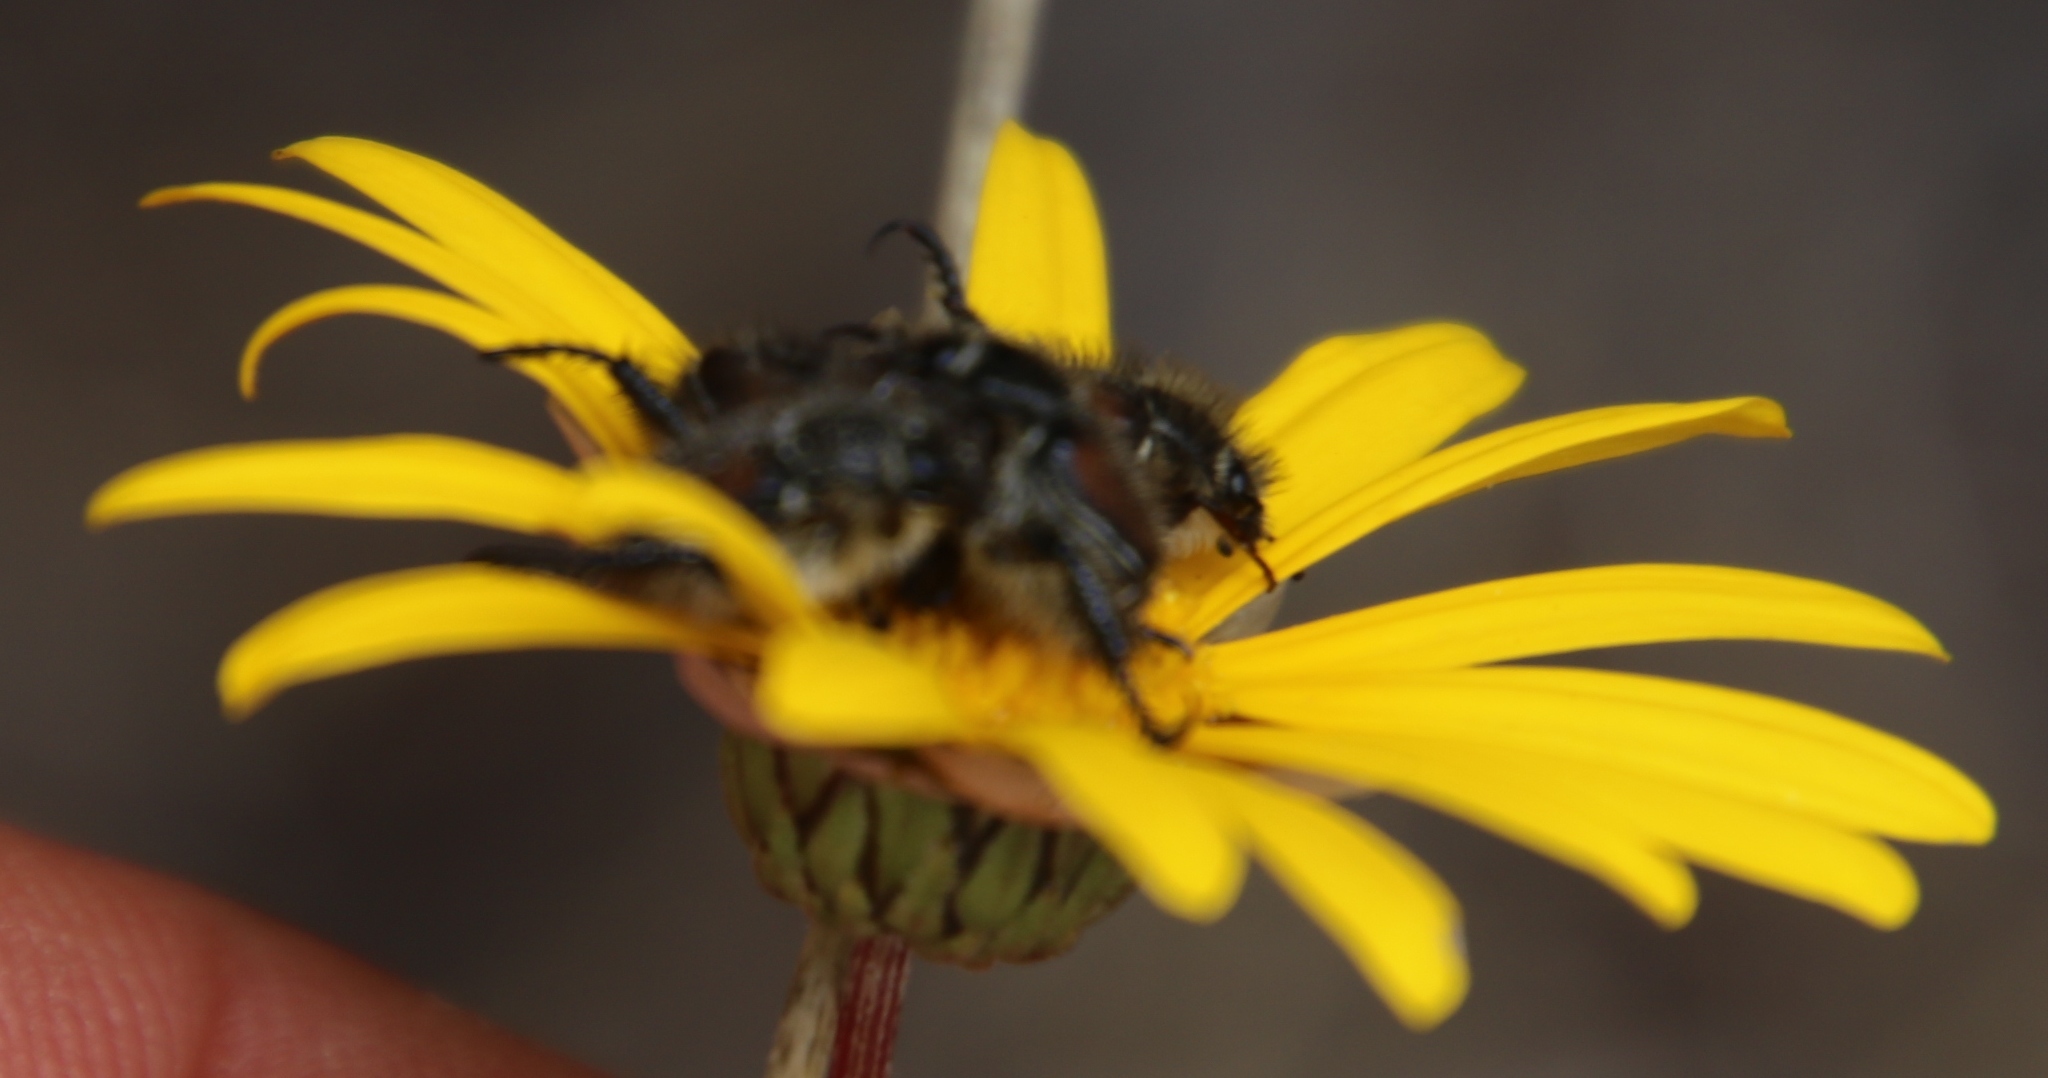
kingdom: Plantae
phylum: Tracheophyta
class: Magnoliopsida
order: Asterales
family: Asteraceae
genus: Ursinia
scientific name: Ursinia paleacea
